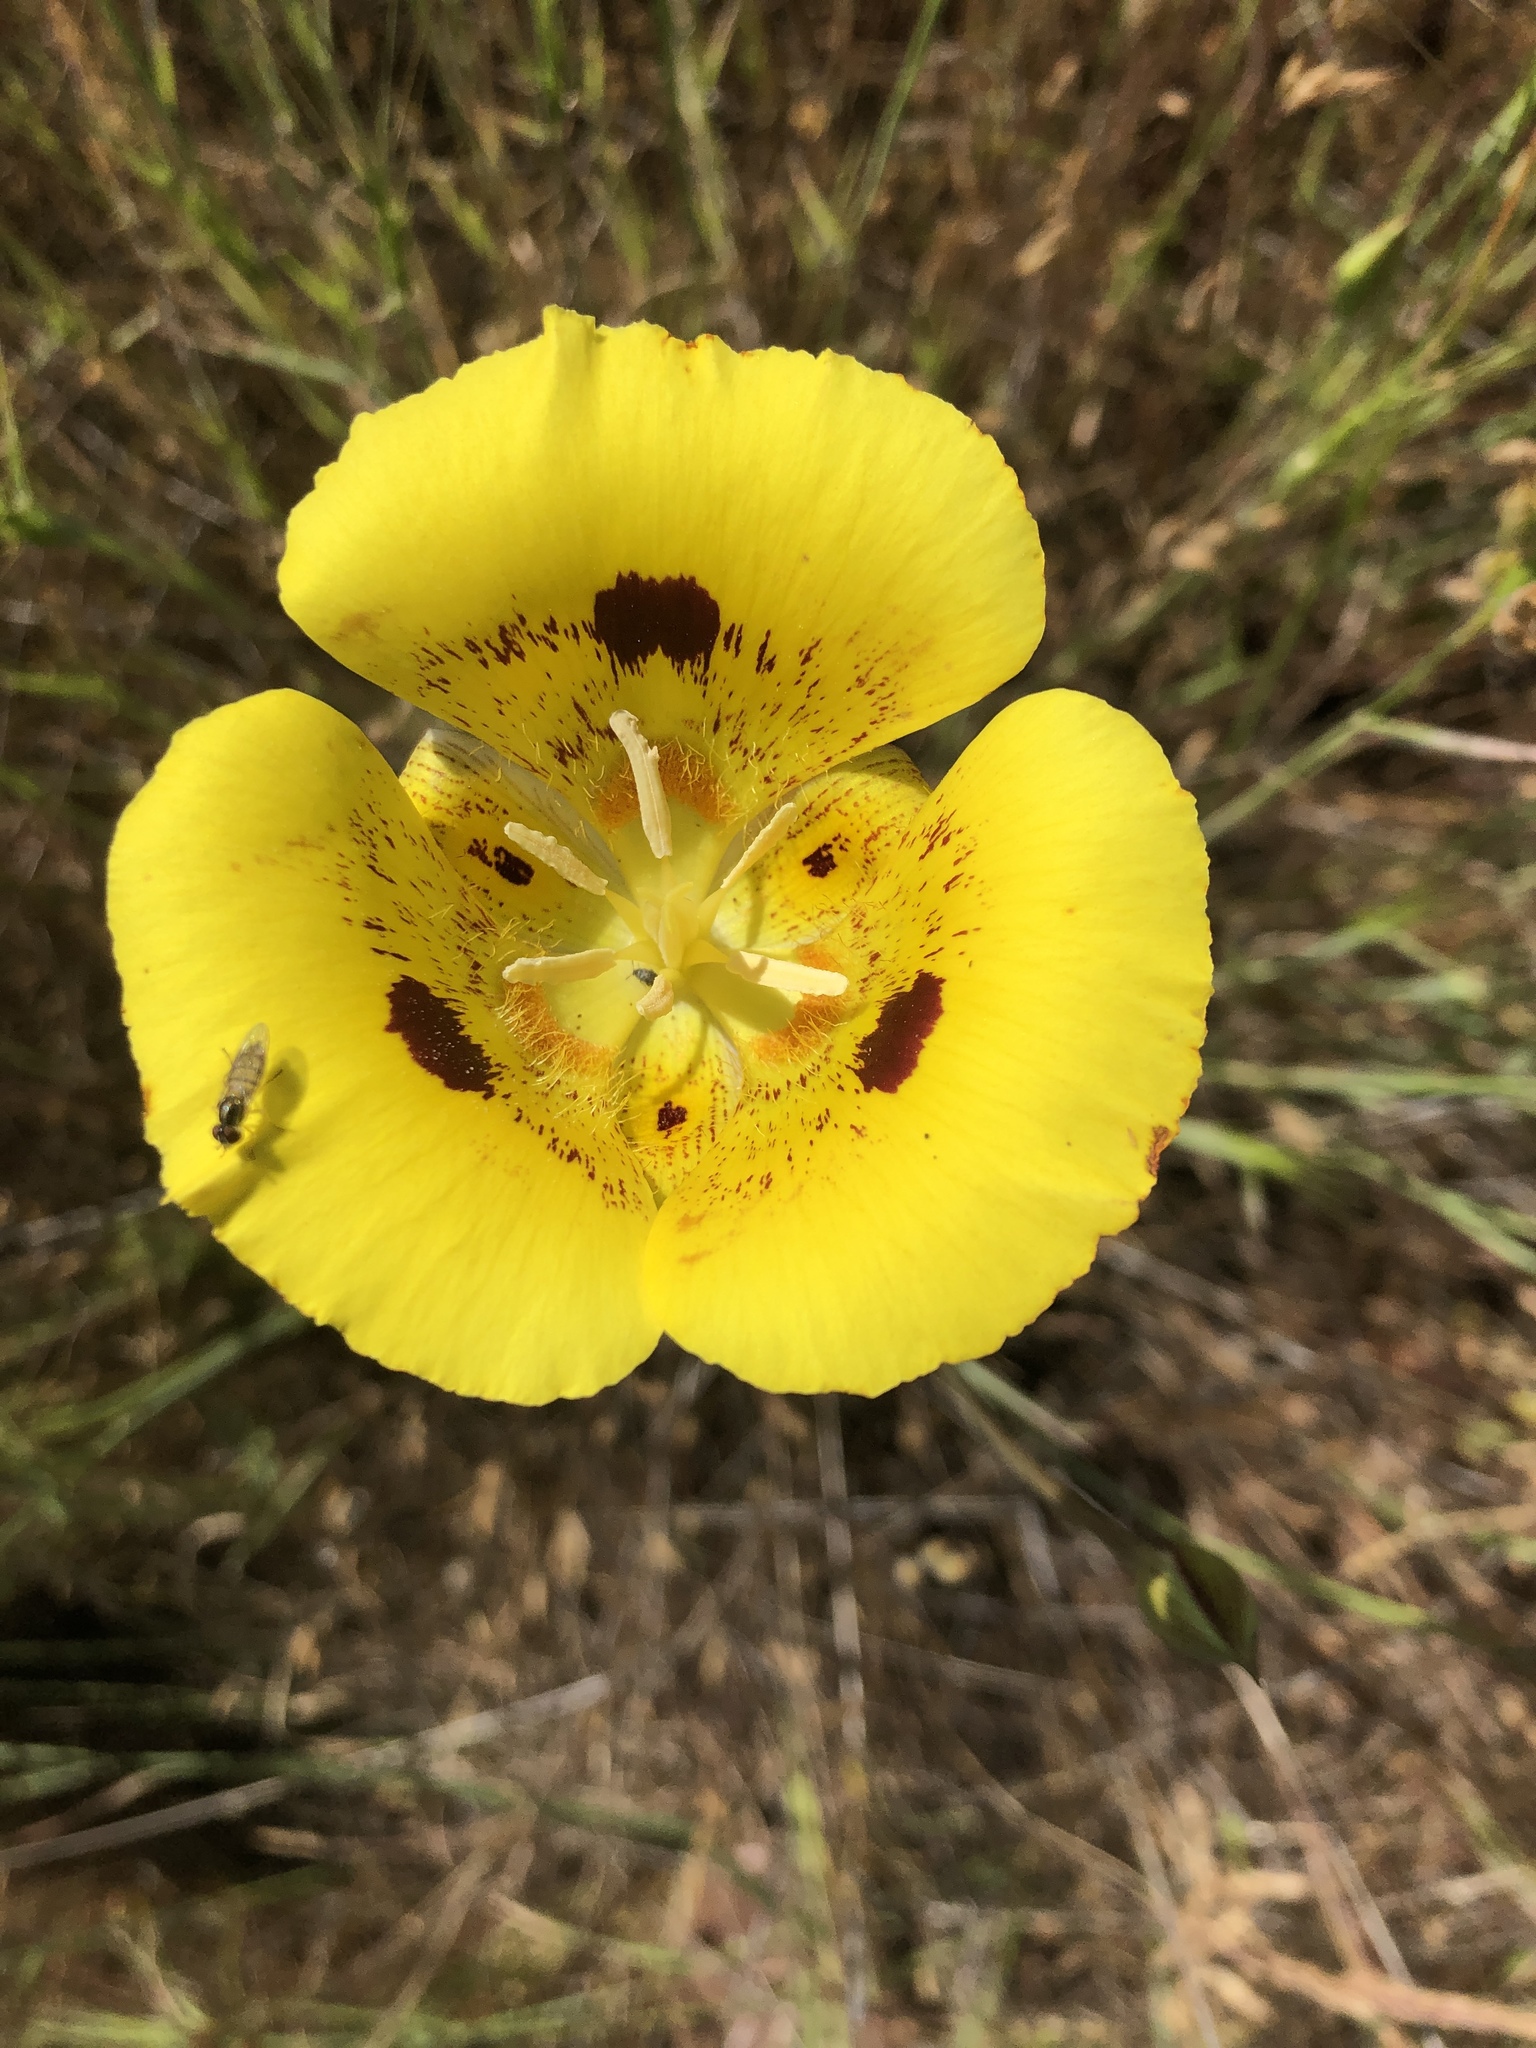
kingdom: Plantae
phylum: Tracheophyta
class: Liliopsida
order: Liliales
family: Liliaceae
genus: Calochortus
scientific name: Calochortus luteus
